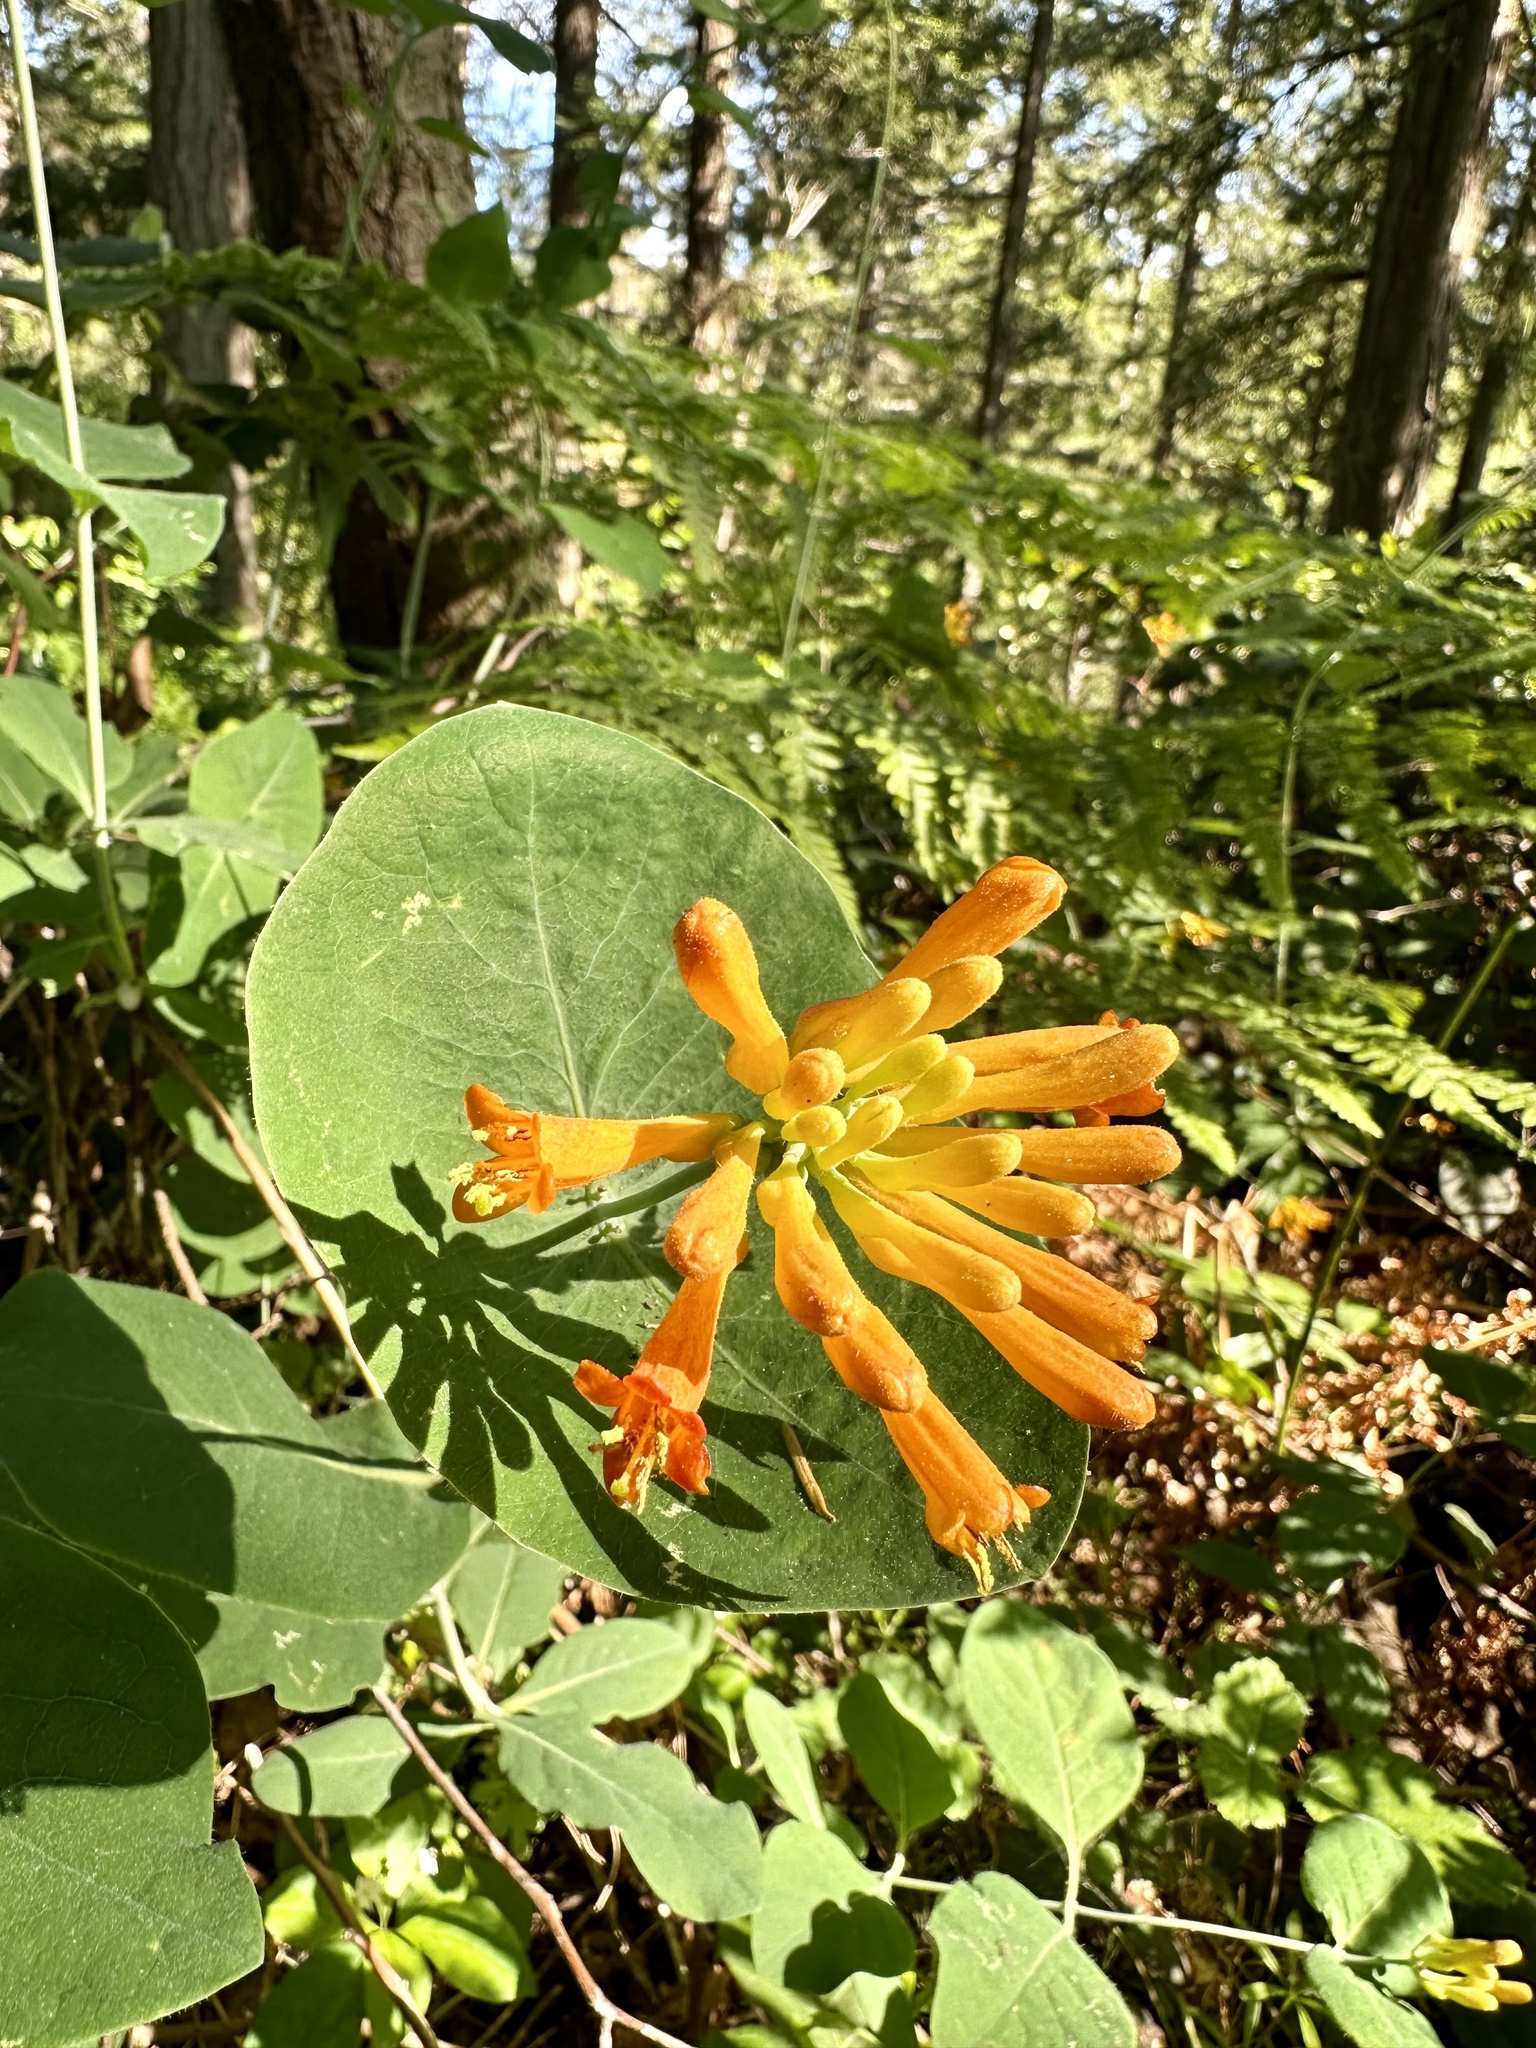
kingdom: Plantae
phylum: Tracheophyta
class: Magnoliopsida
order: Dipsacales
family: Caprifoliaceae
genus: Lonicera
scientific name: Lonicera ciliosa
